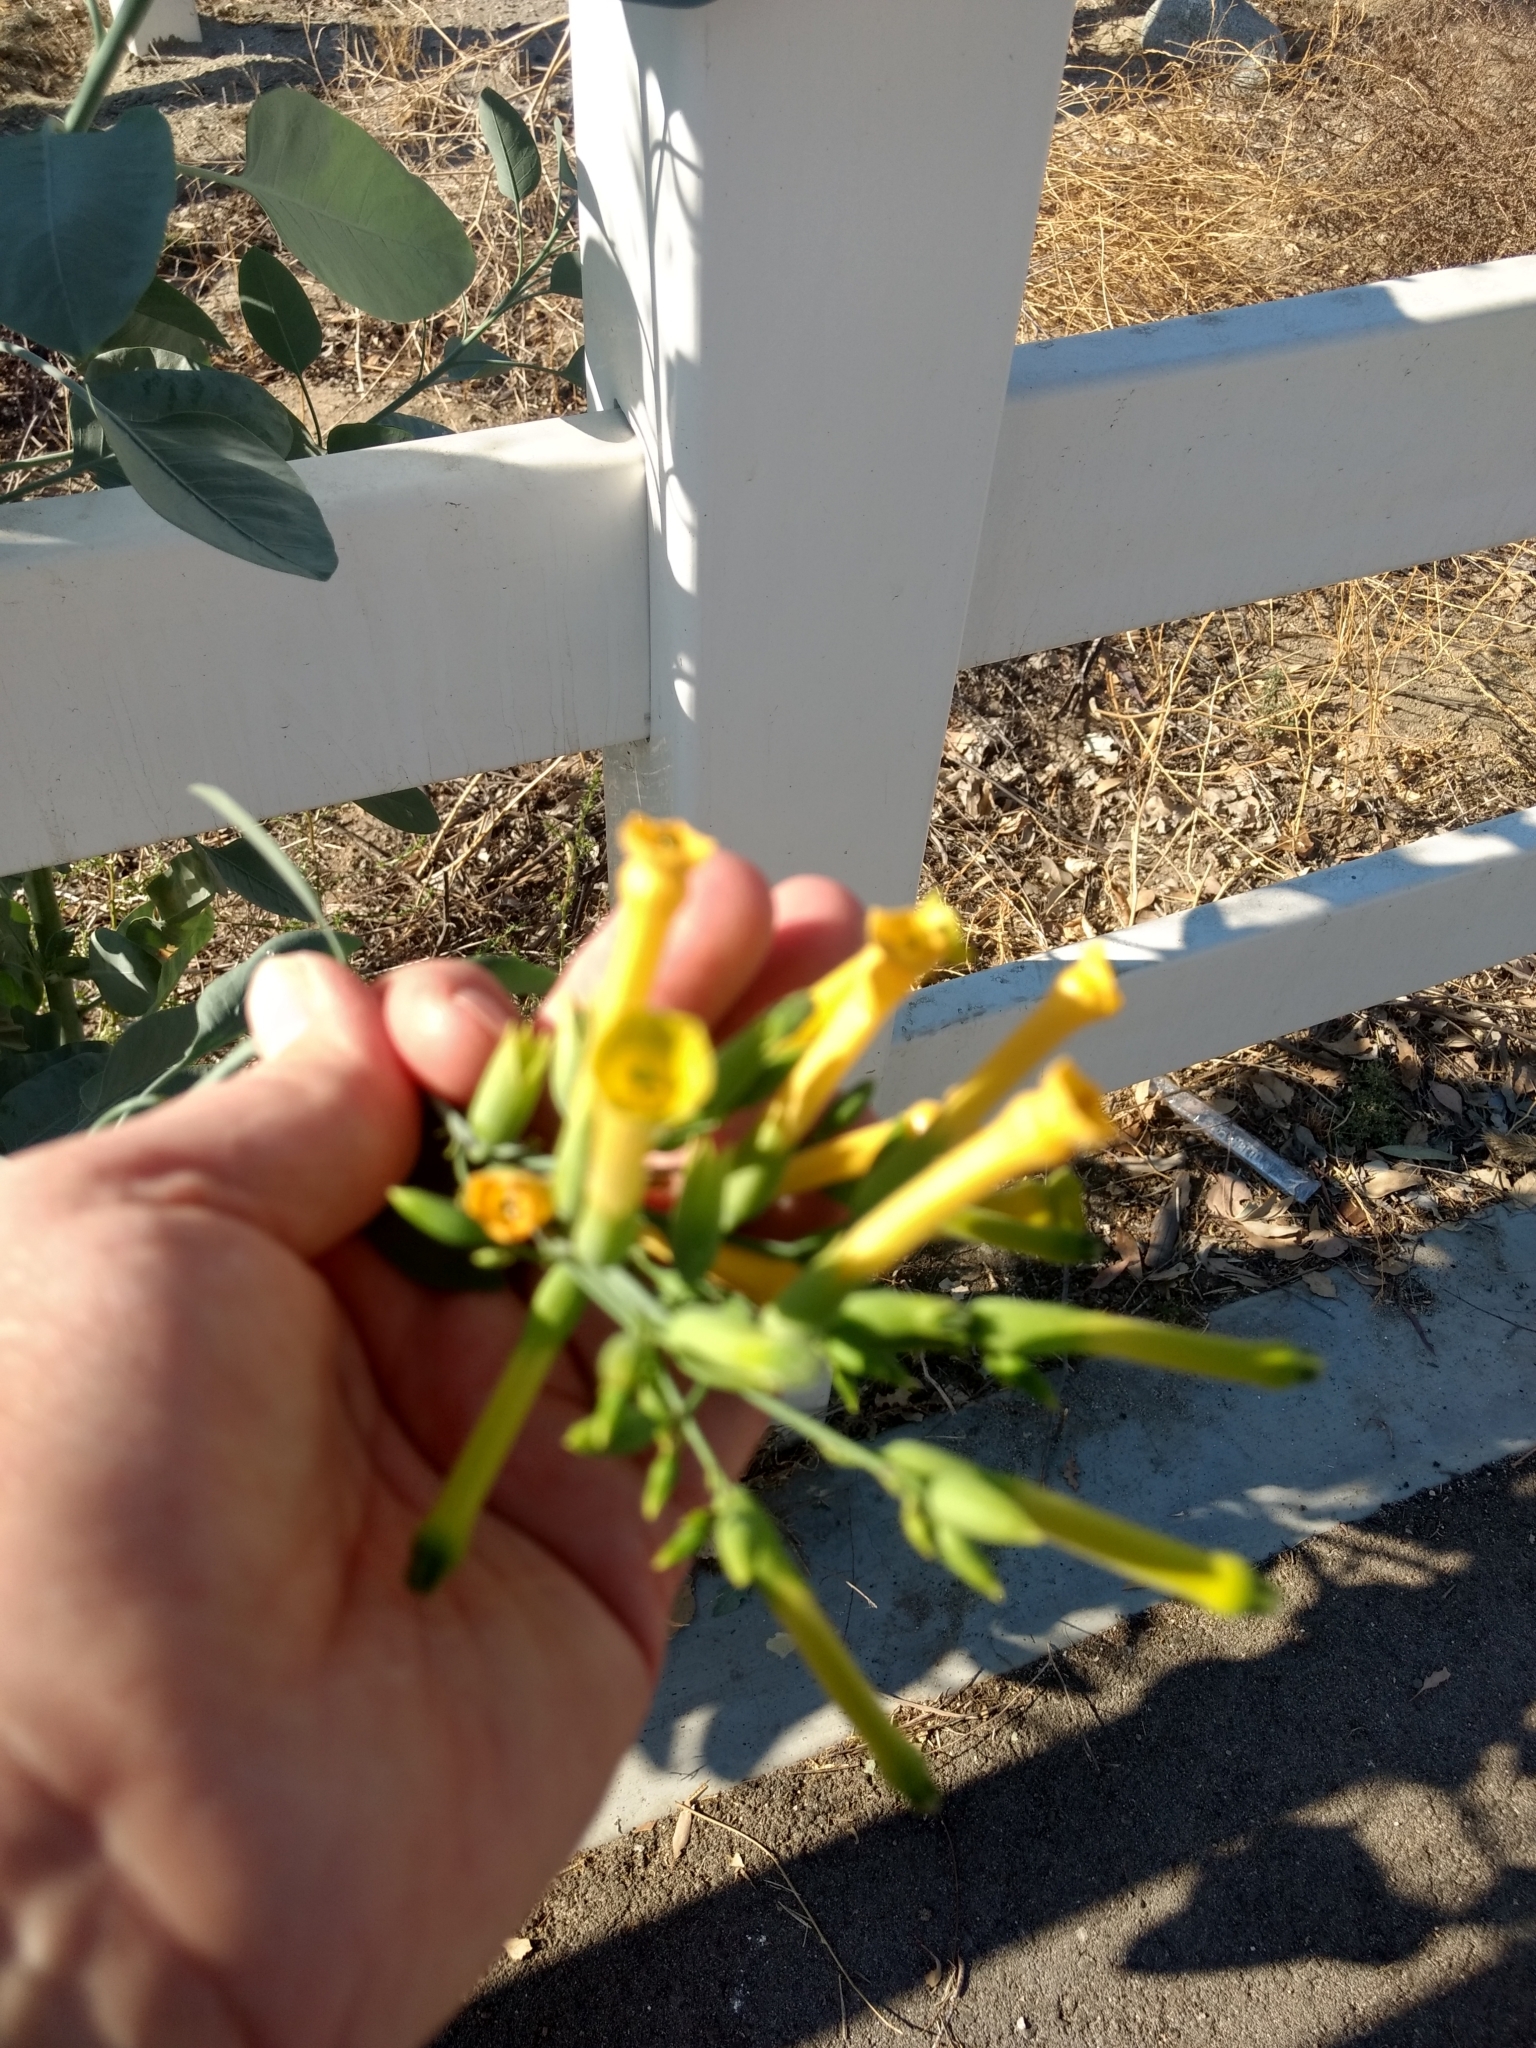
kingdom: Plantae
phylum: Tracheophyta
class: Magnoliopsida
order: Solanales
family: Solanaceae
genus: Nicotiana
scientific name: Nicotiana glauca
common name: Tree tobacco
